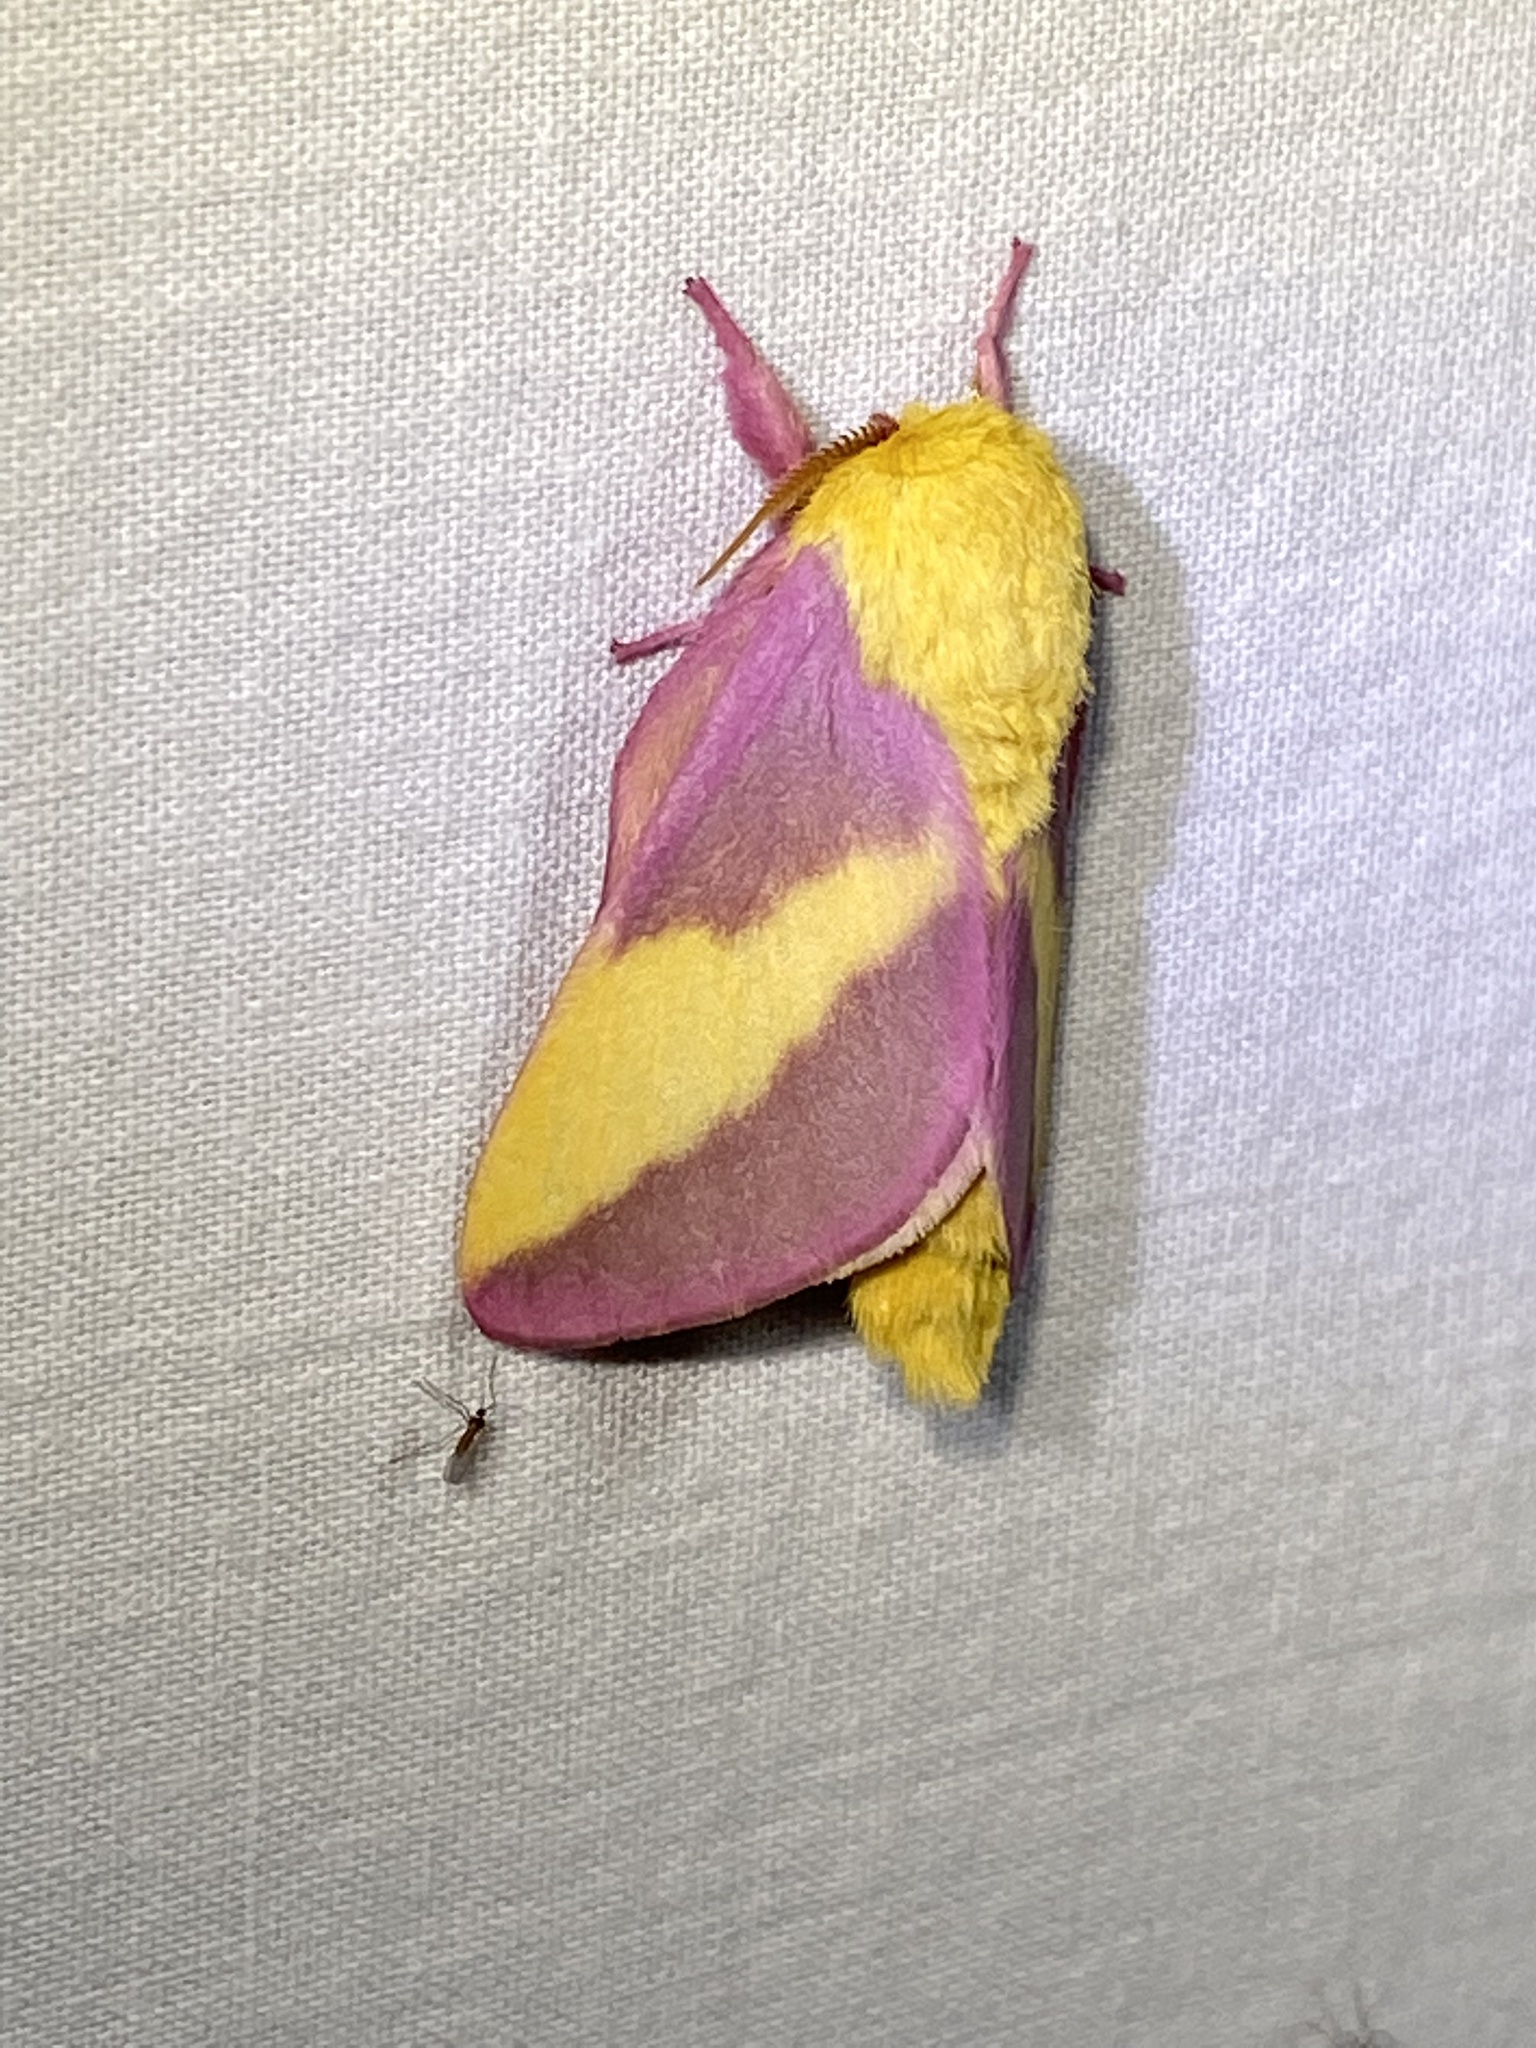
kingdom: Animalia
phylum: Arthropoda
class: Insecta
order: Lepidoptera
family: Saturniidae
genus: Dryocampa
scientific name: Dryocampa rubicunda
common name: Rosy maple moth
